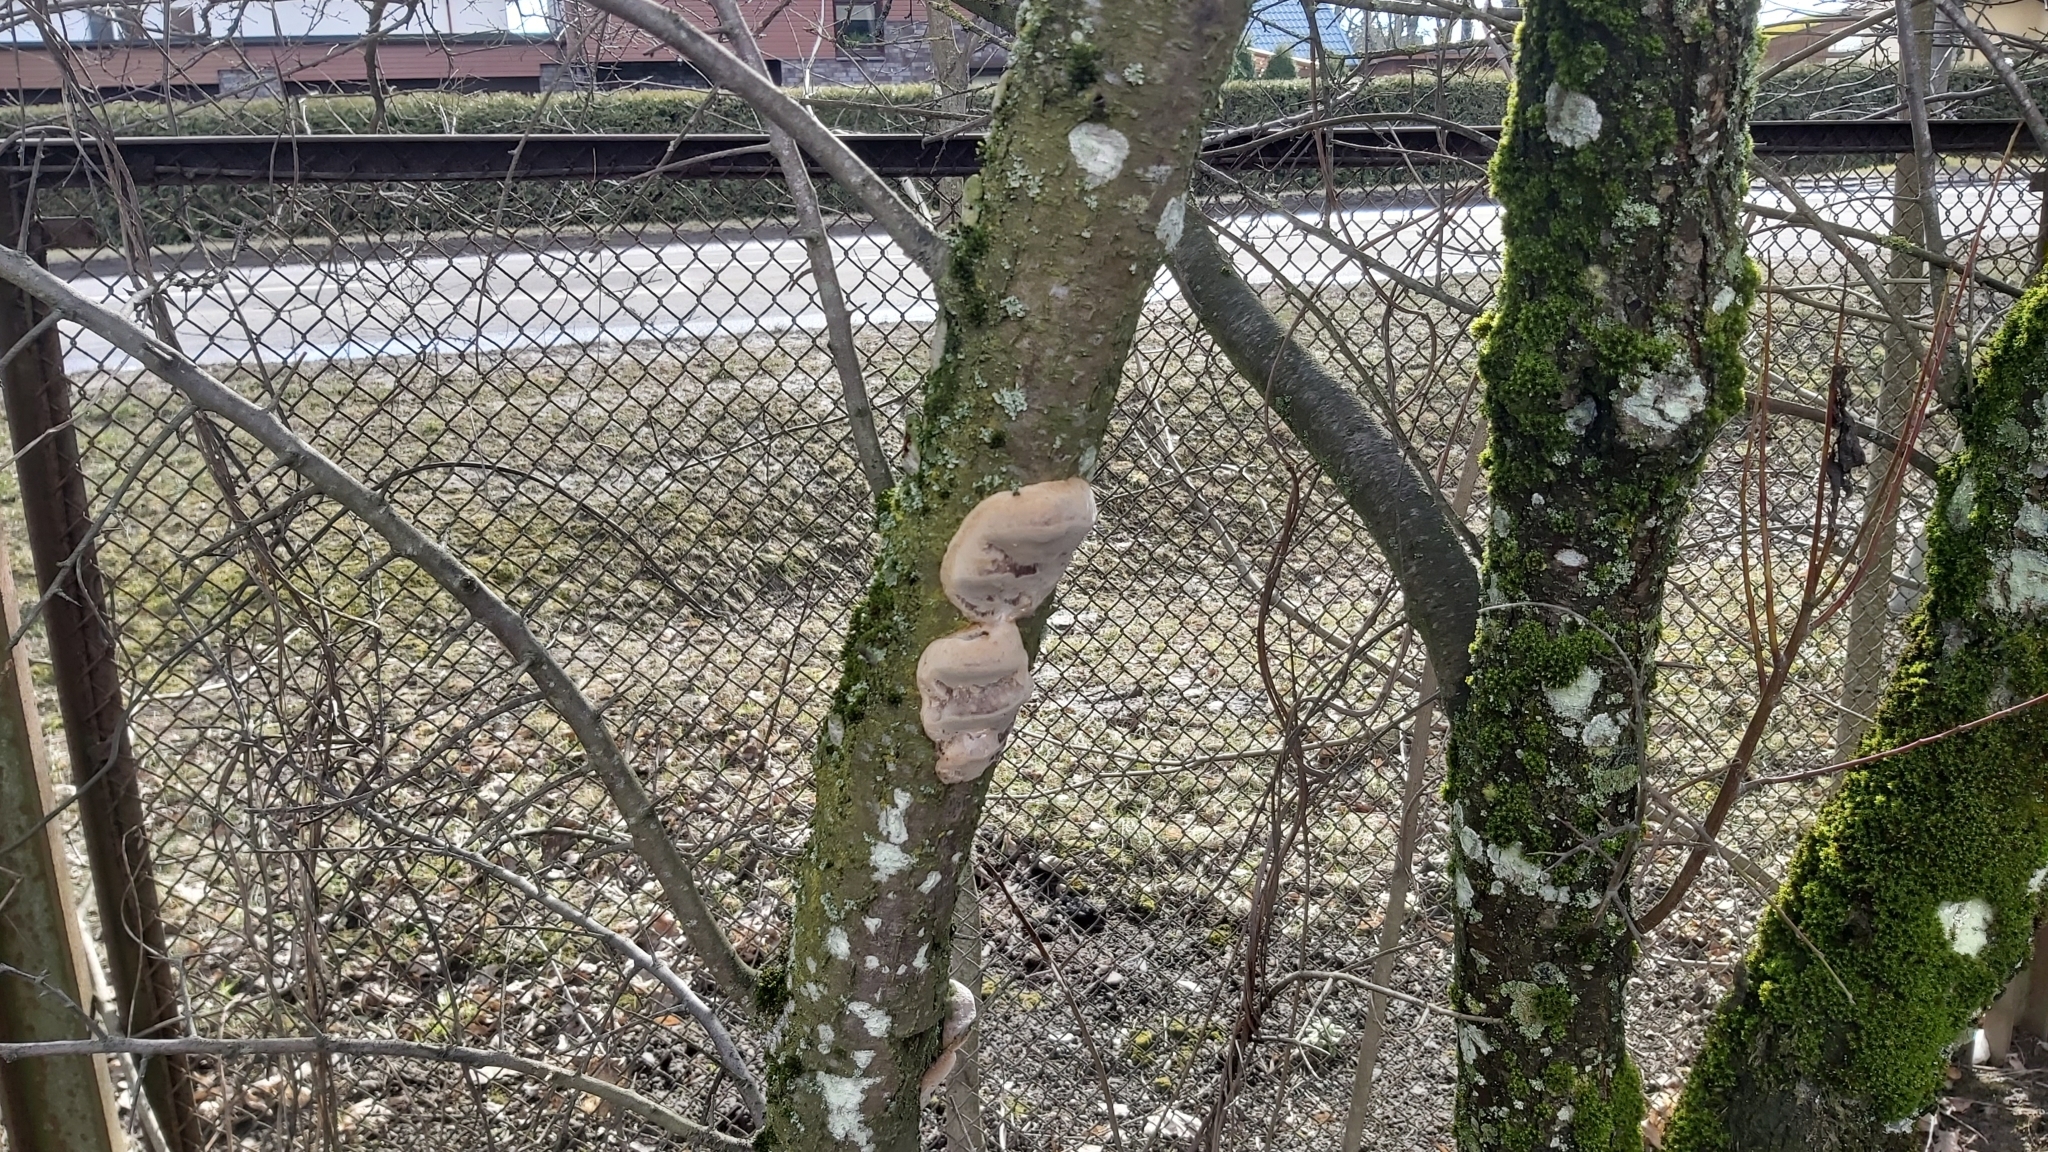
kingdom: Fungi
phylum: Basidiomycota
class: Agaricomycetes
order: Hymenochaetales
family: Hymenochaetaceae
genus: Phellinus
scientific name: Phellinus pomaceus
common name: Cushion bracket
